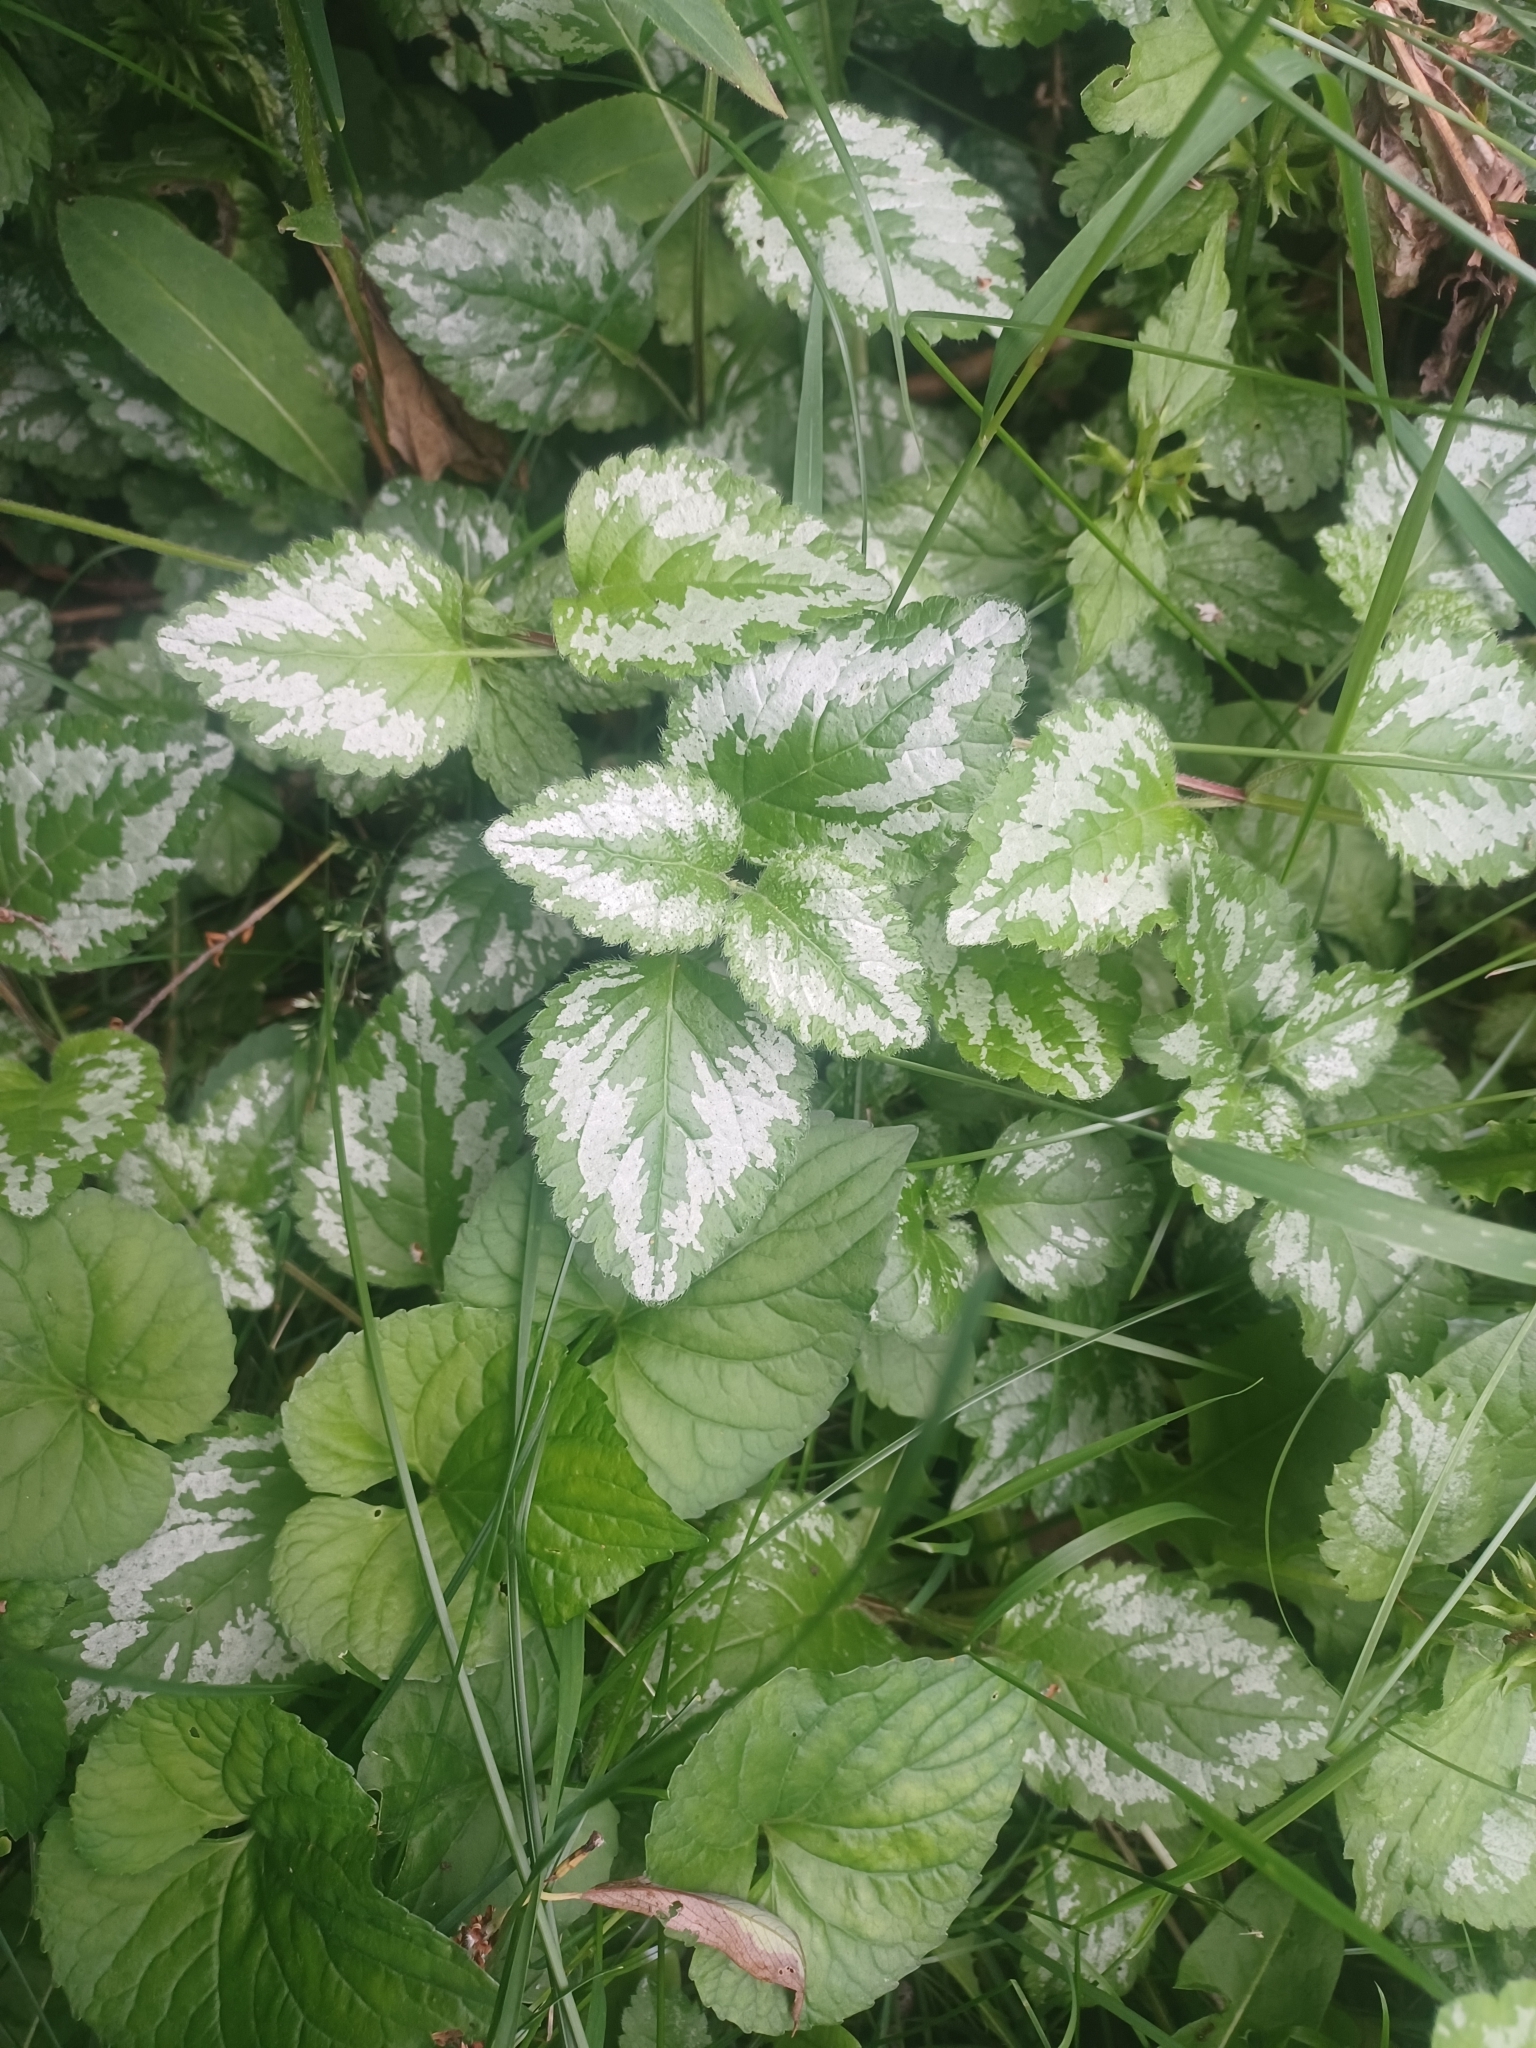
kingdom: Plantae
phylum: Tracheophyta
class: Magnoliopsida
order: Lamiales
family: Lamiaceae
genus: Lamium
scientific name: Lamium galeobdolon
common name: Yellow archangel
